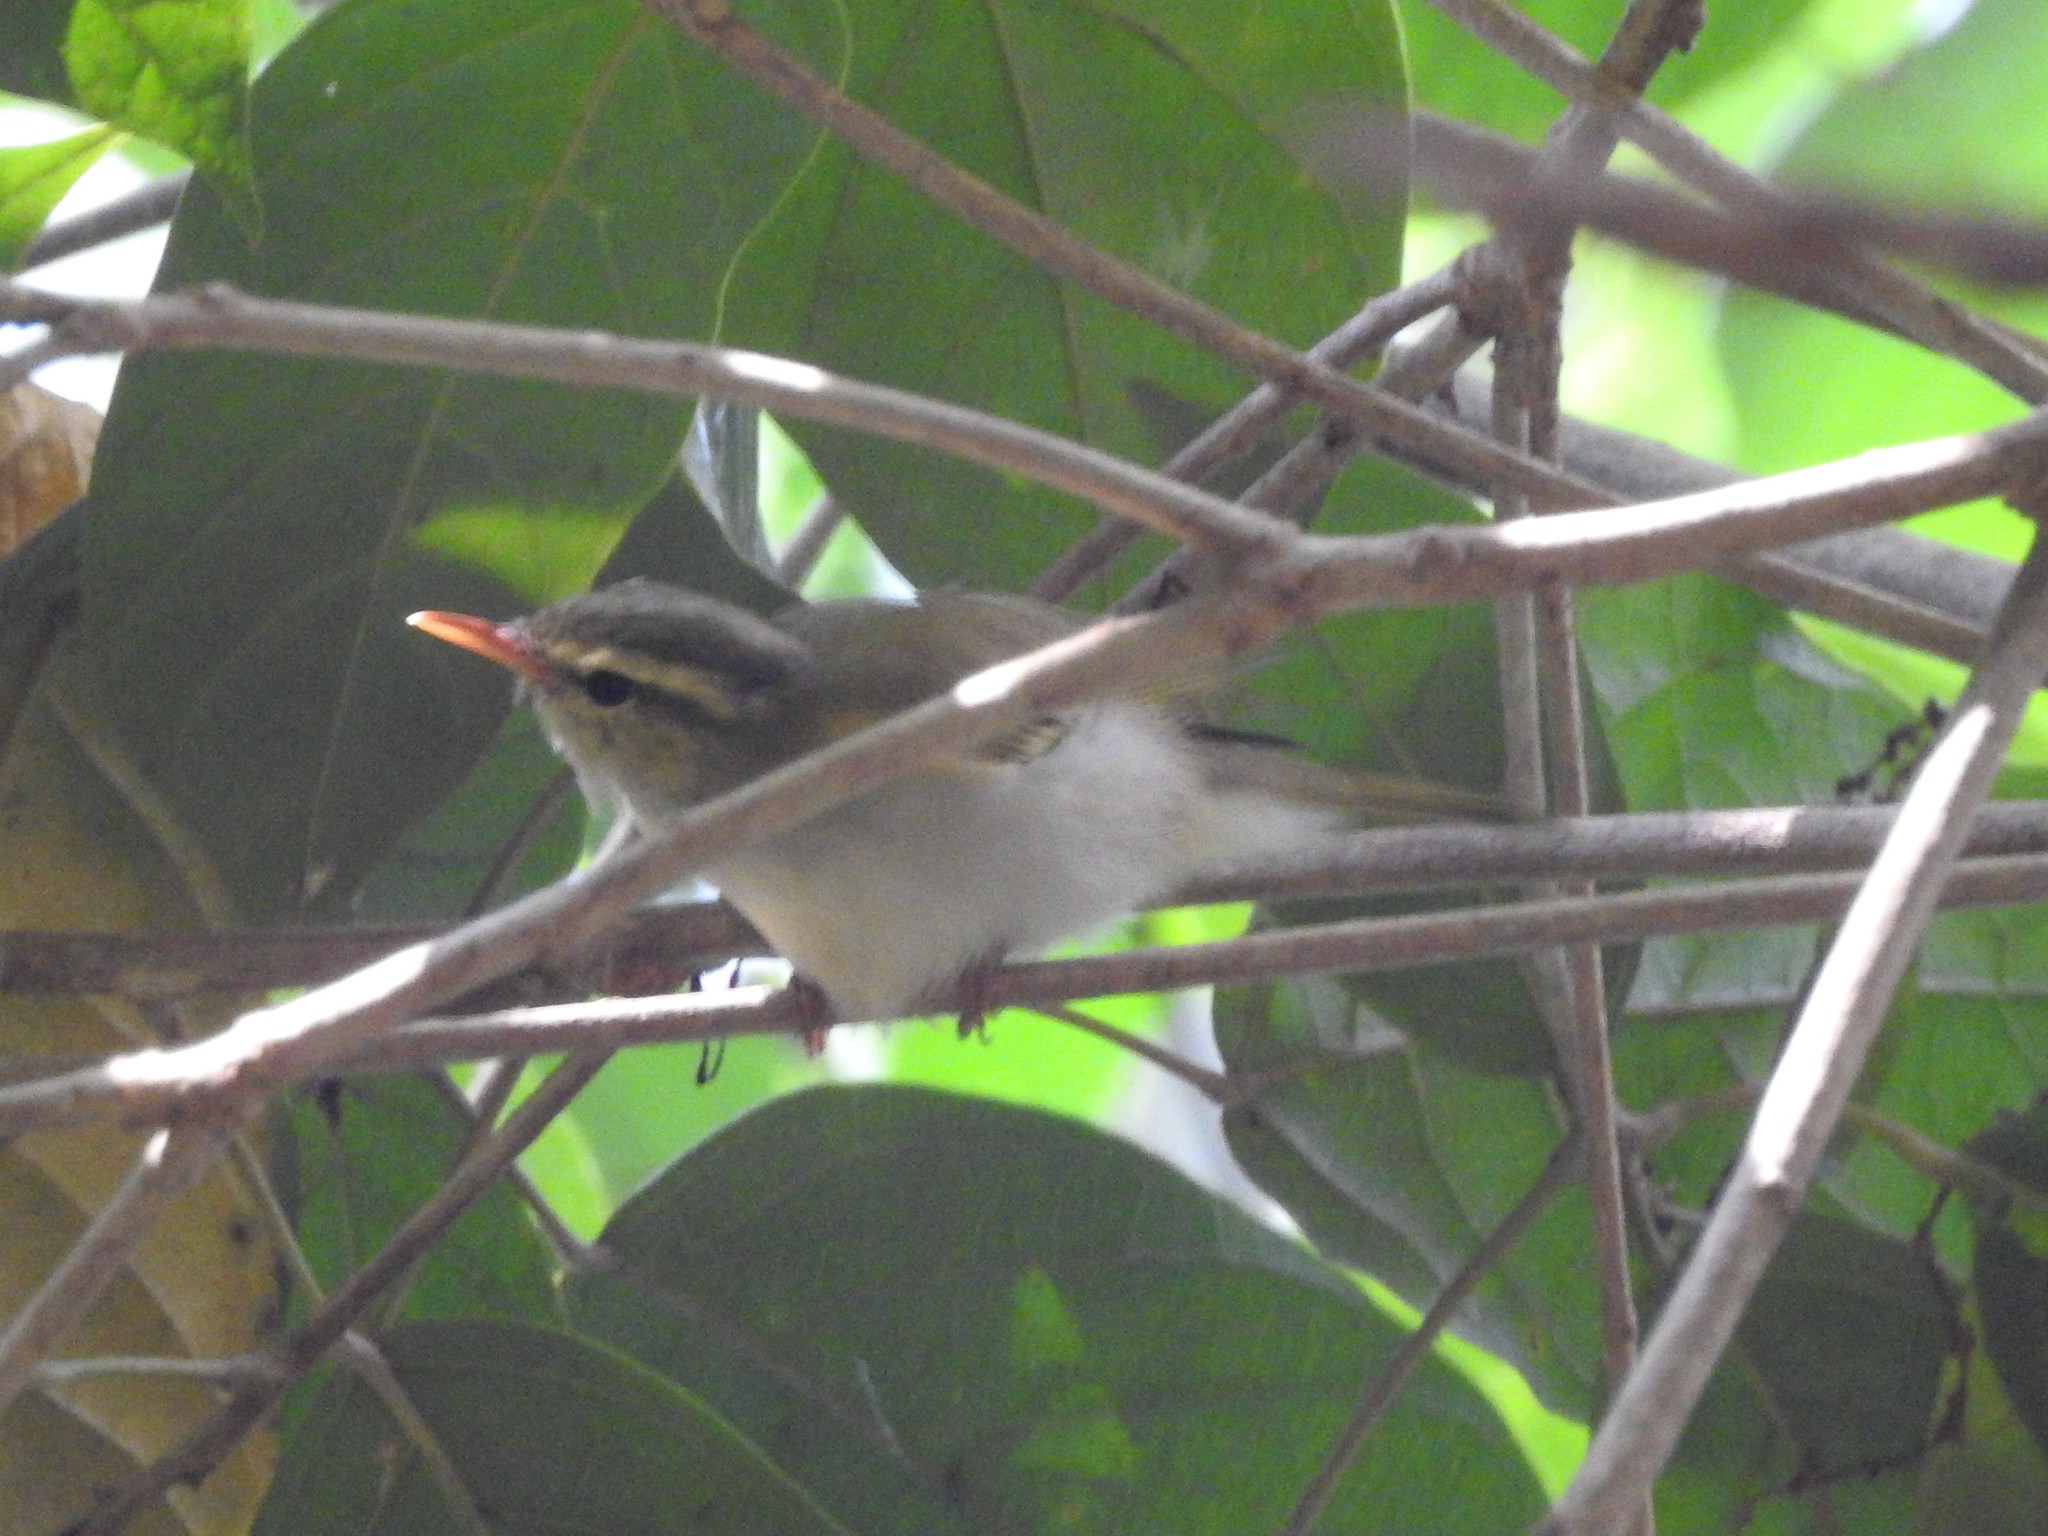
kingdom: Animalia
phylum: Chordata
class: Aves
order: Passeriformes
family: Phylloscopidae
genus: Phylloscopus
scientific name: Phylloscopus occipitalis
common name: Western crowned warbler
